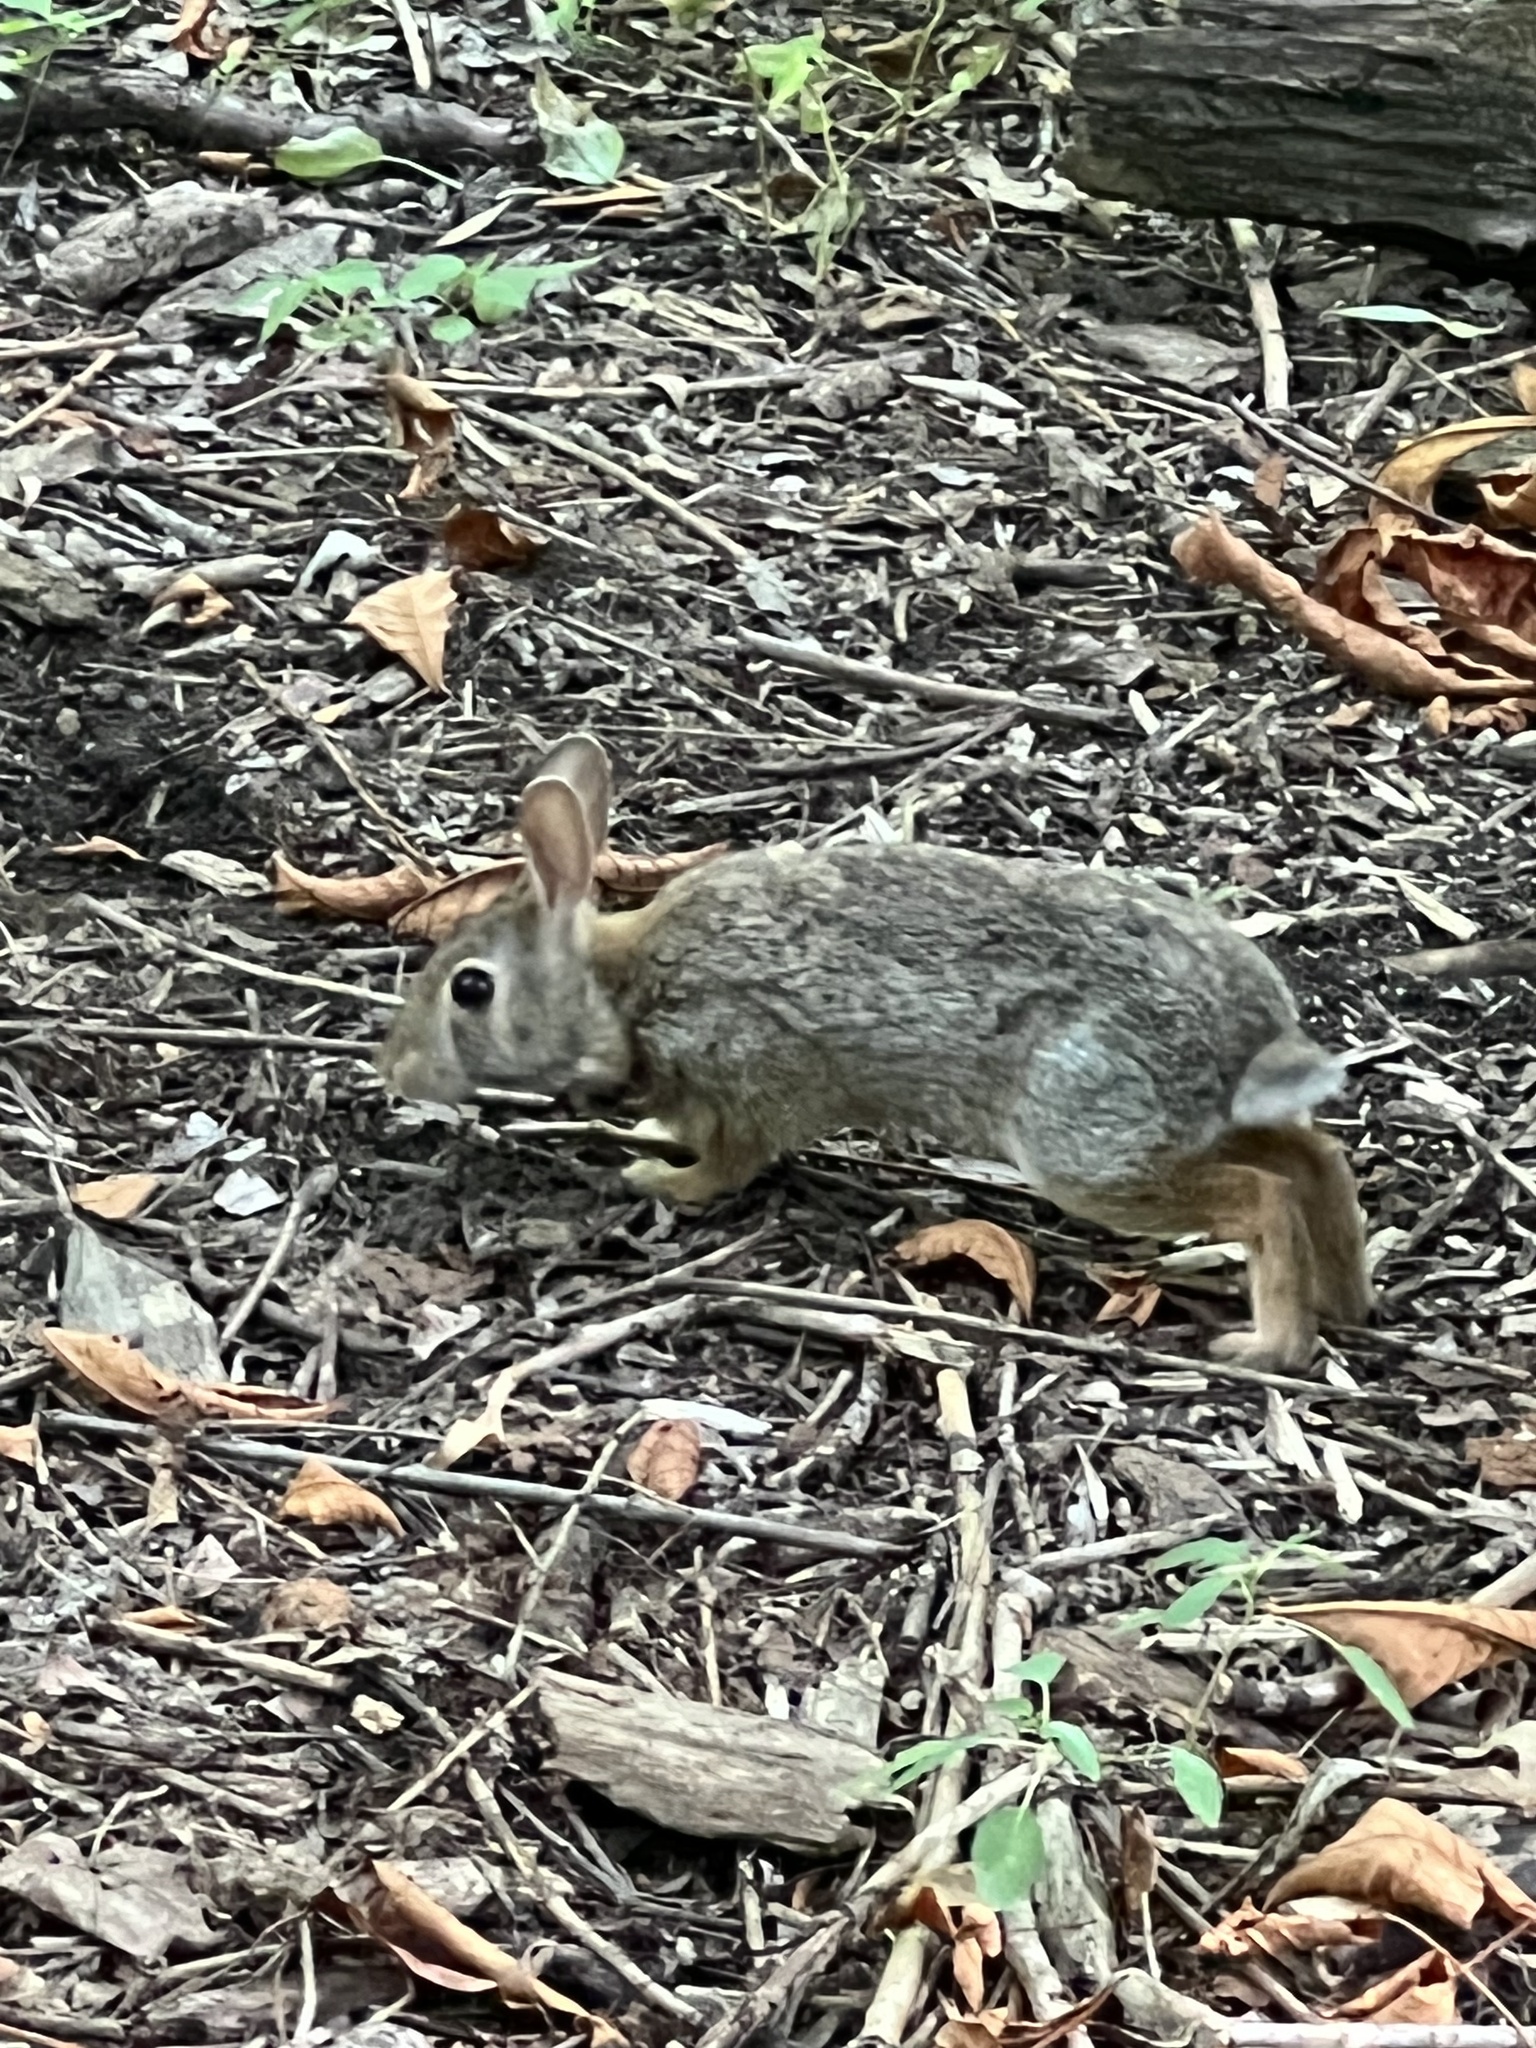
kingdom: Animalia
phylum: Chordata
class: Mammalia
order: Lagomorpha
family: Leporidae
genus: Sylvilagus
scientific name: Sylvilagus floridanus
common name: Eastern cottontail
